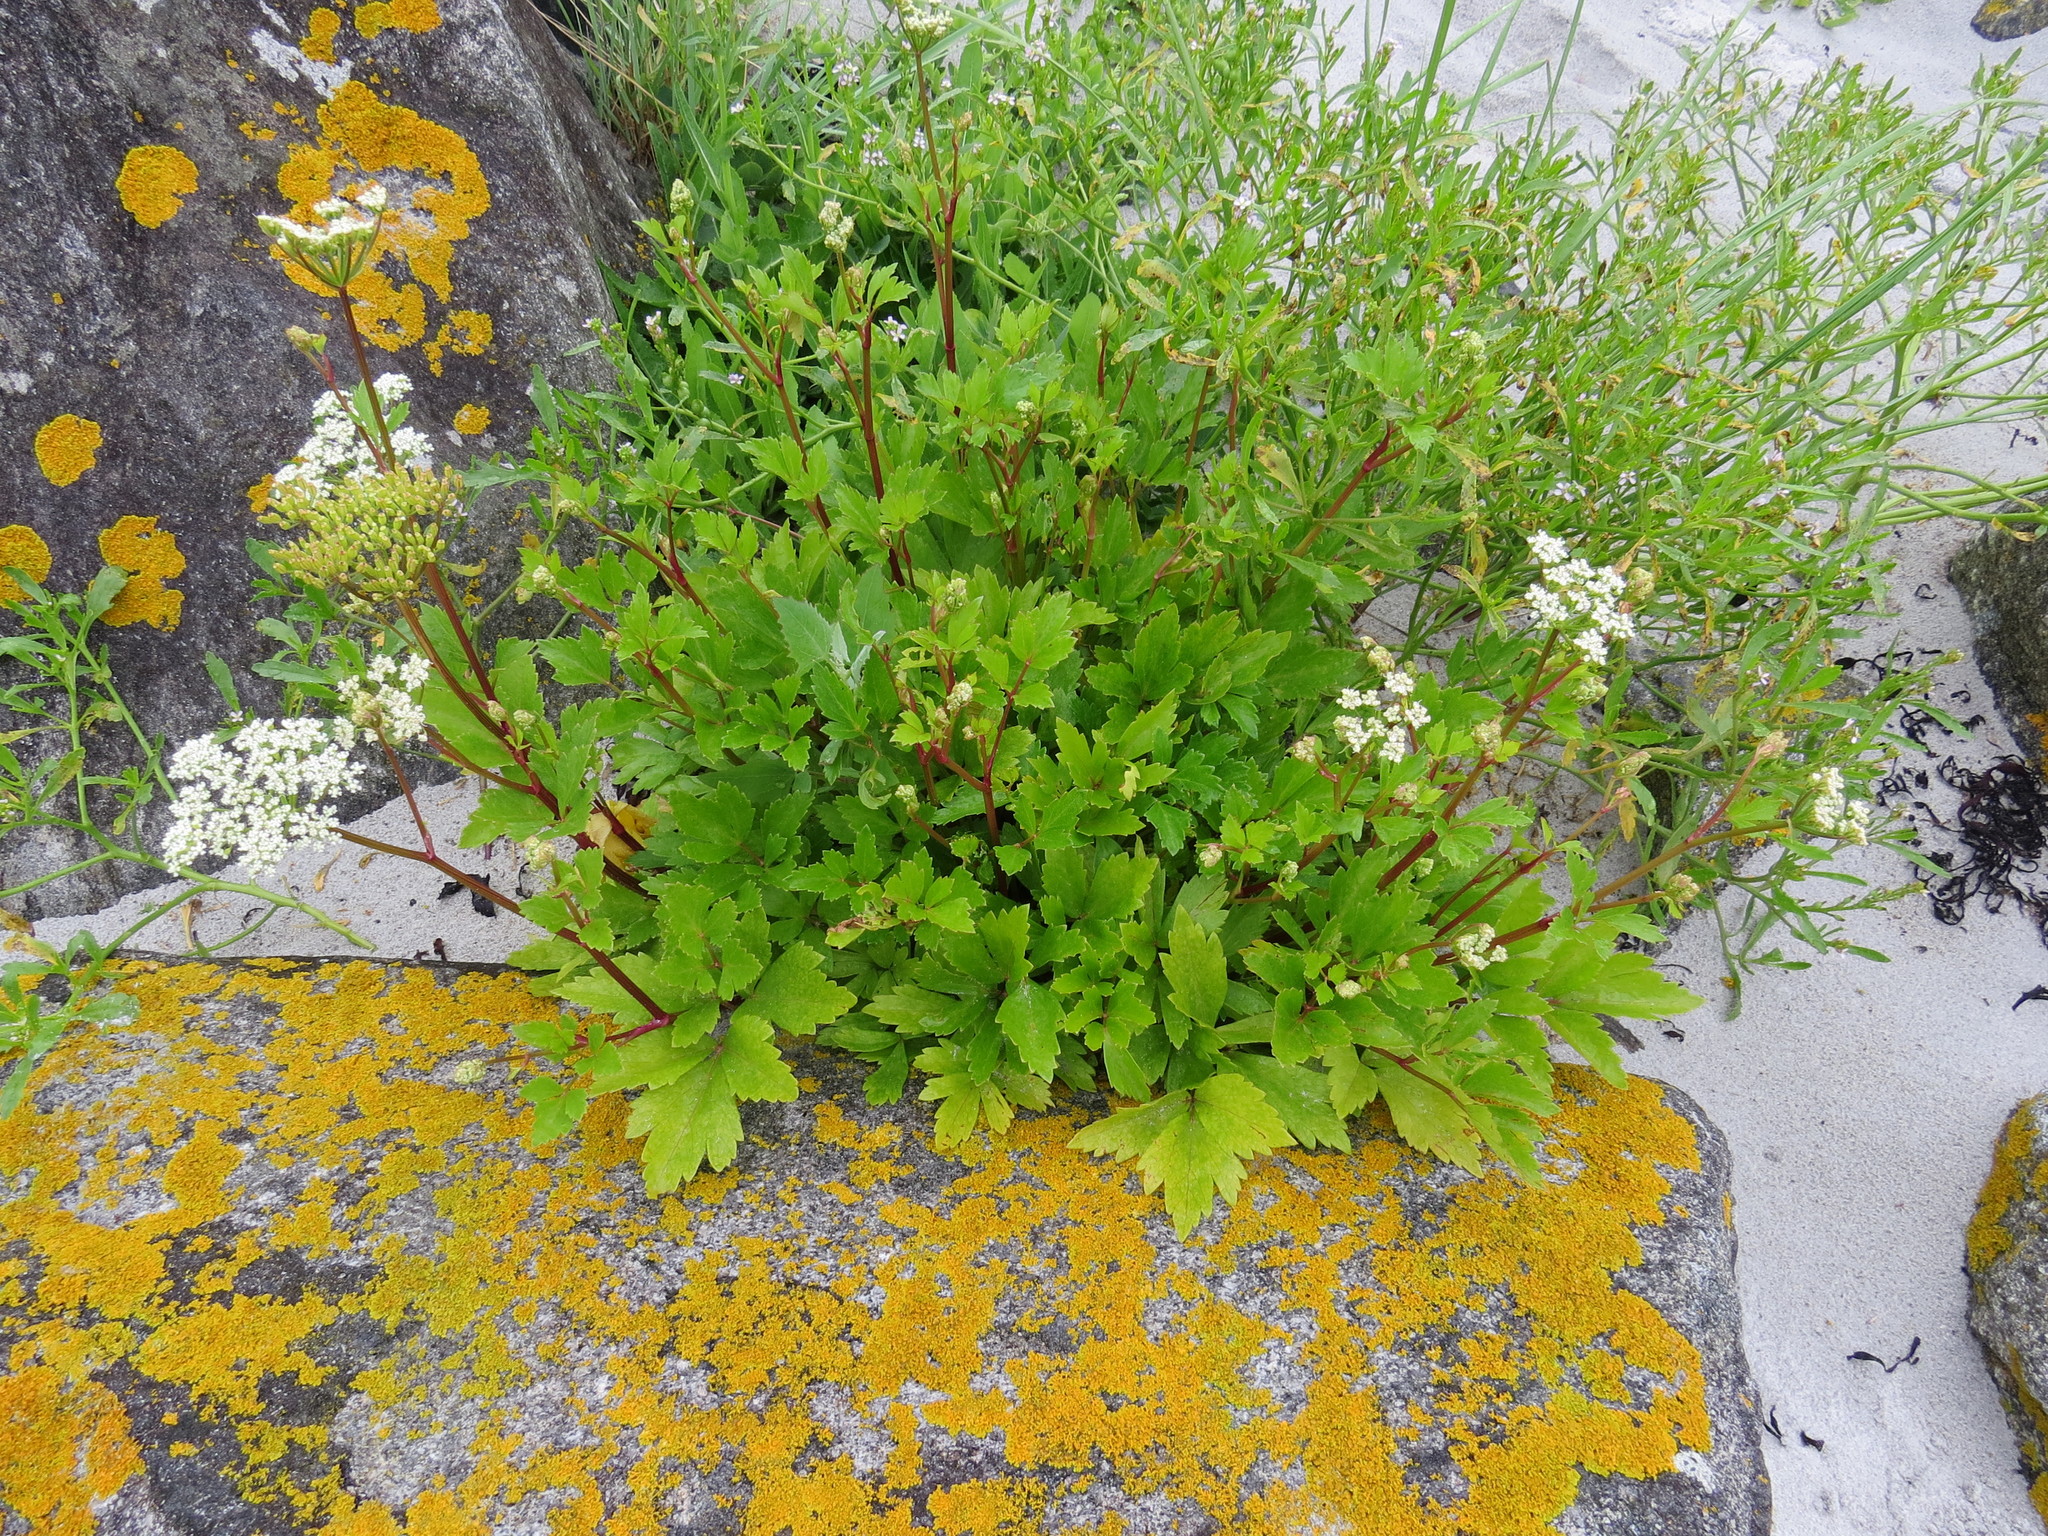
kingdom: Plantae
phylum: Tracheophyta
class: Magnoliopsida
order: Apiales
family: Apiaceae
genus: Ligusticum
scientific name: Ligusticum scothicum
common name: Beach lovage
